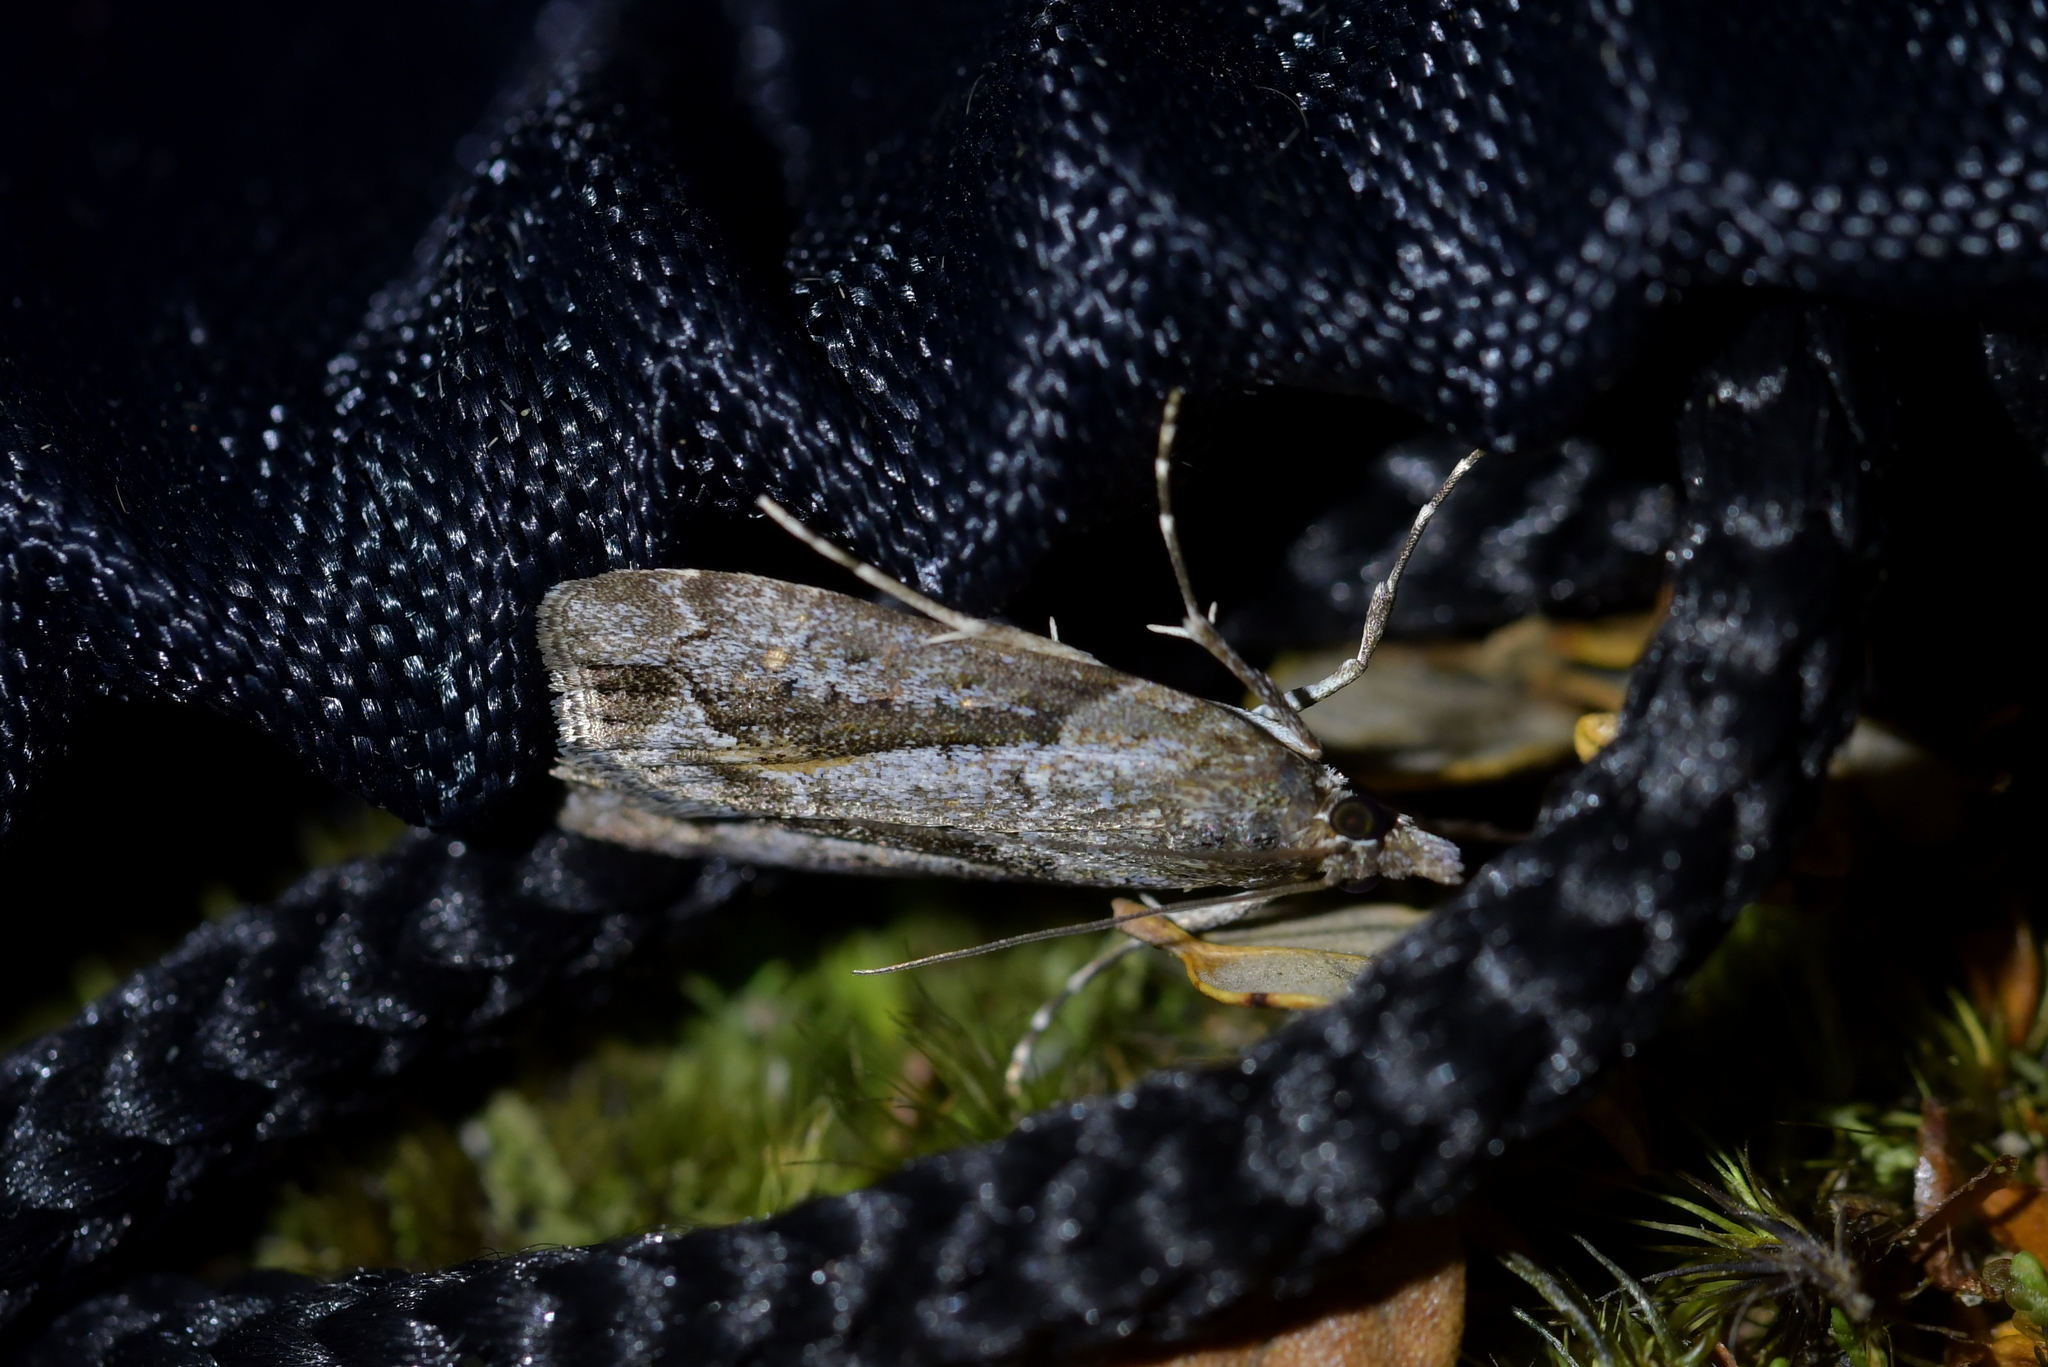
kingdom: Animalia
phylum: Arthropoda
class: Insecta
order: Lepidoptera
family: Crambidae
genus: Eudonia
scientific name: Eudonia submarginalis
